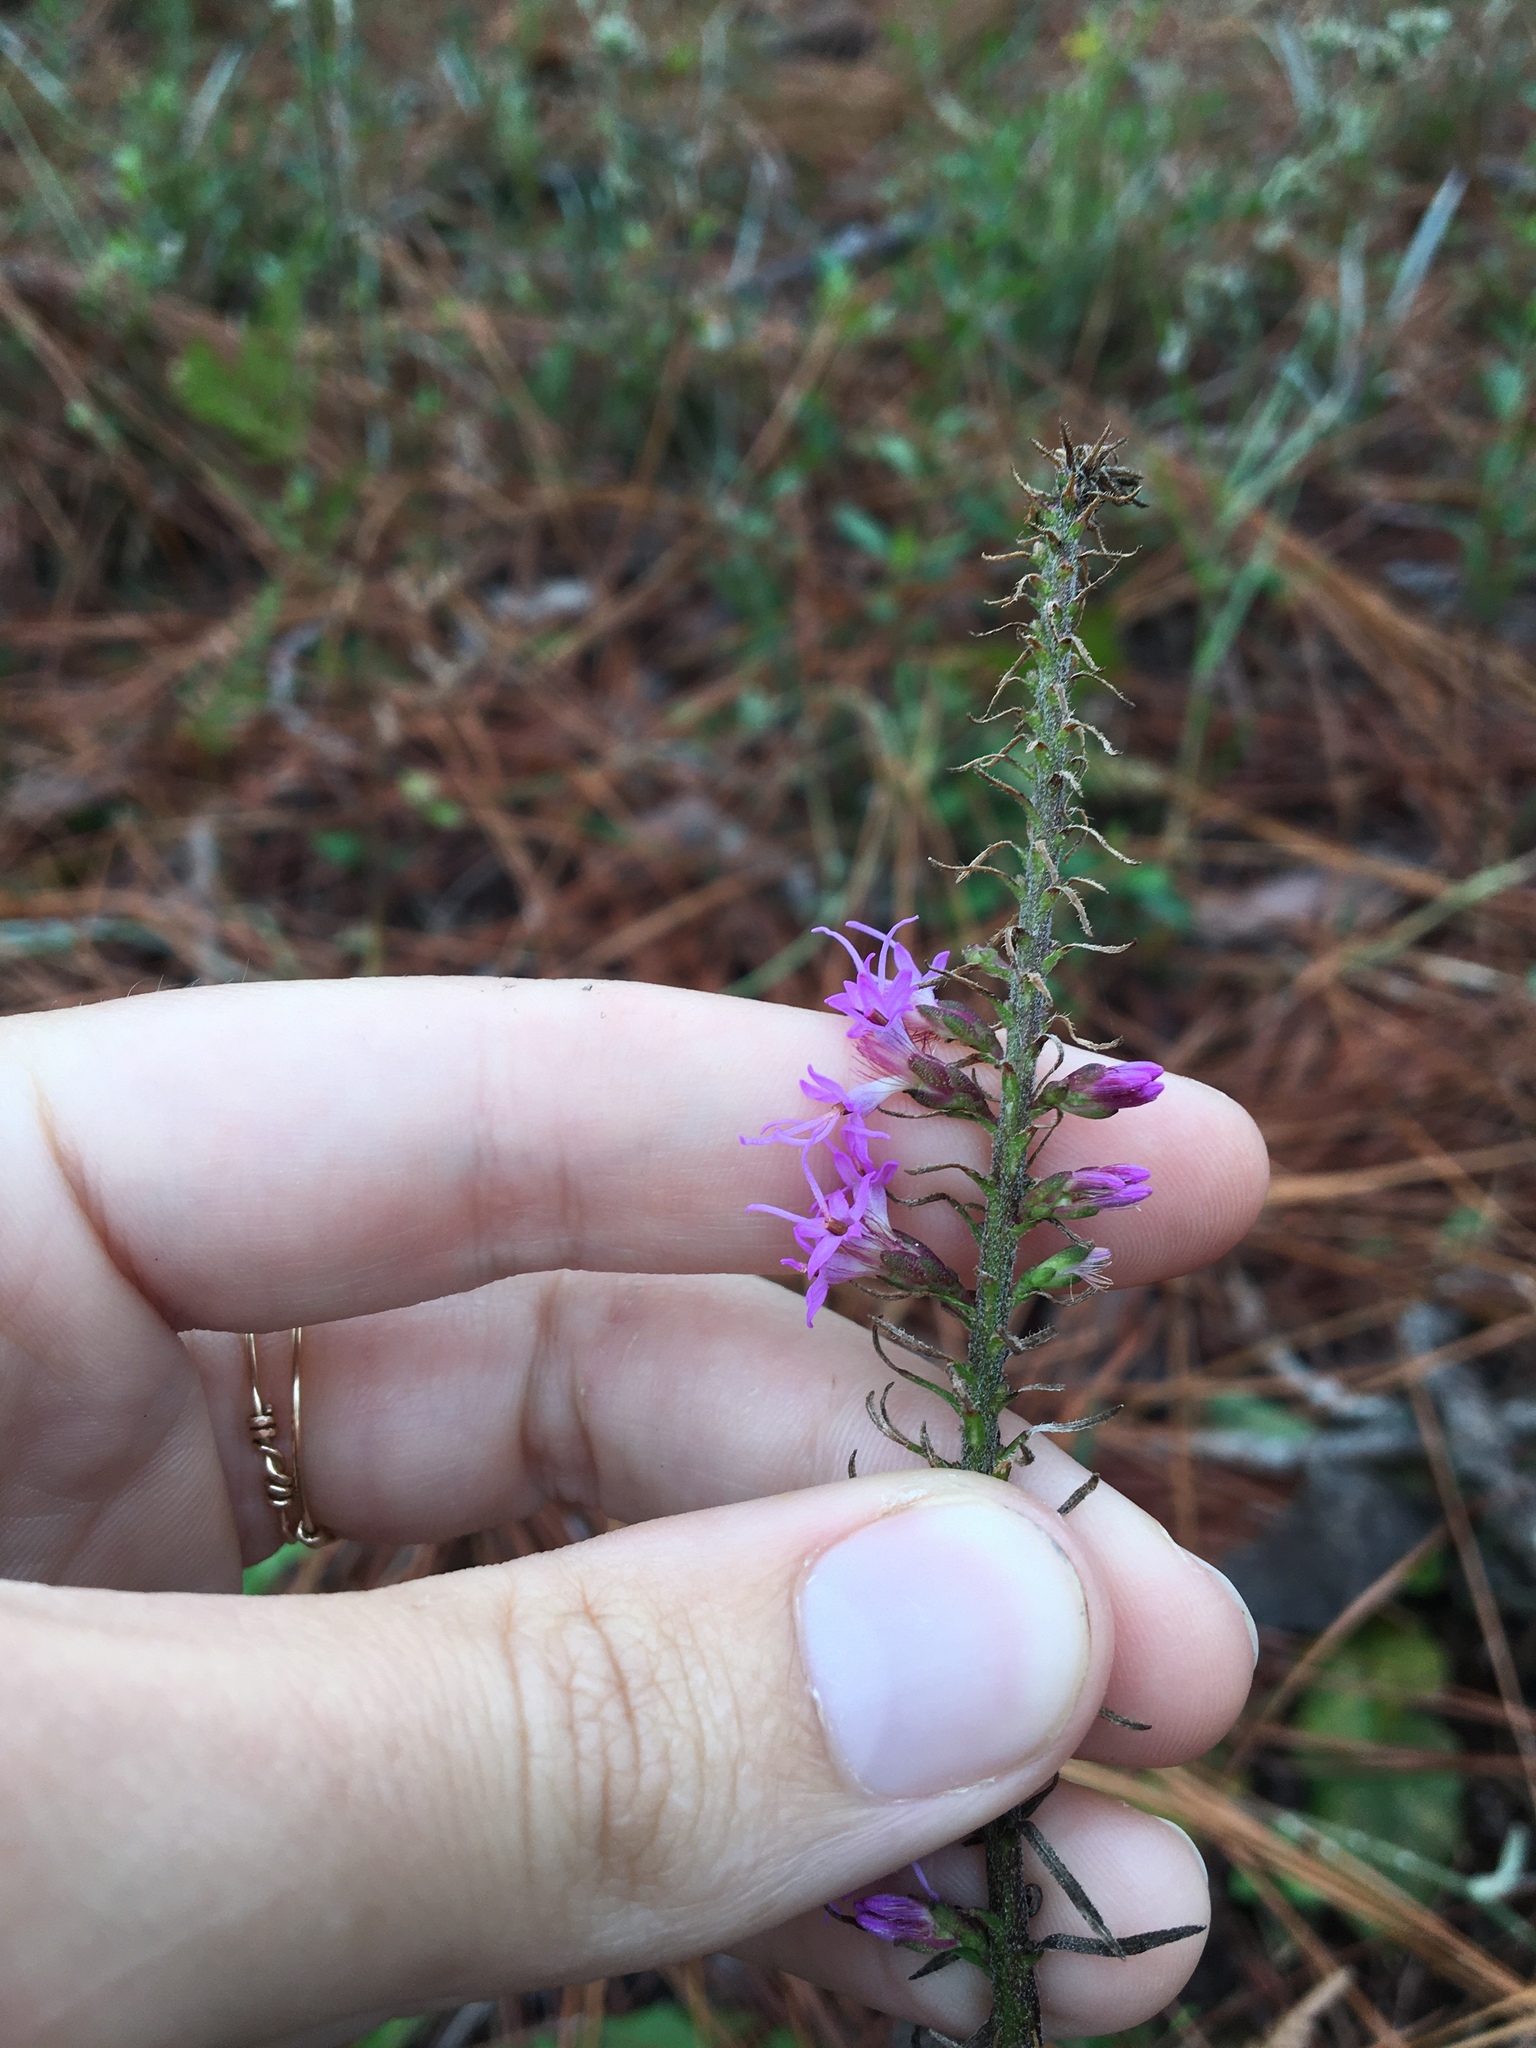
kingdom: Plantae
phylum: Tracheophyta
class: Magnoliopsida
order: Asterales
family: Asteraceae
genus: Liatris
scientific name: Liatris gracilis
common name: Slender gayfeather
